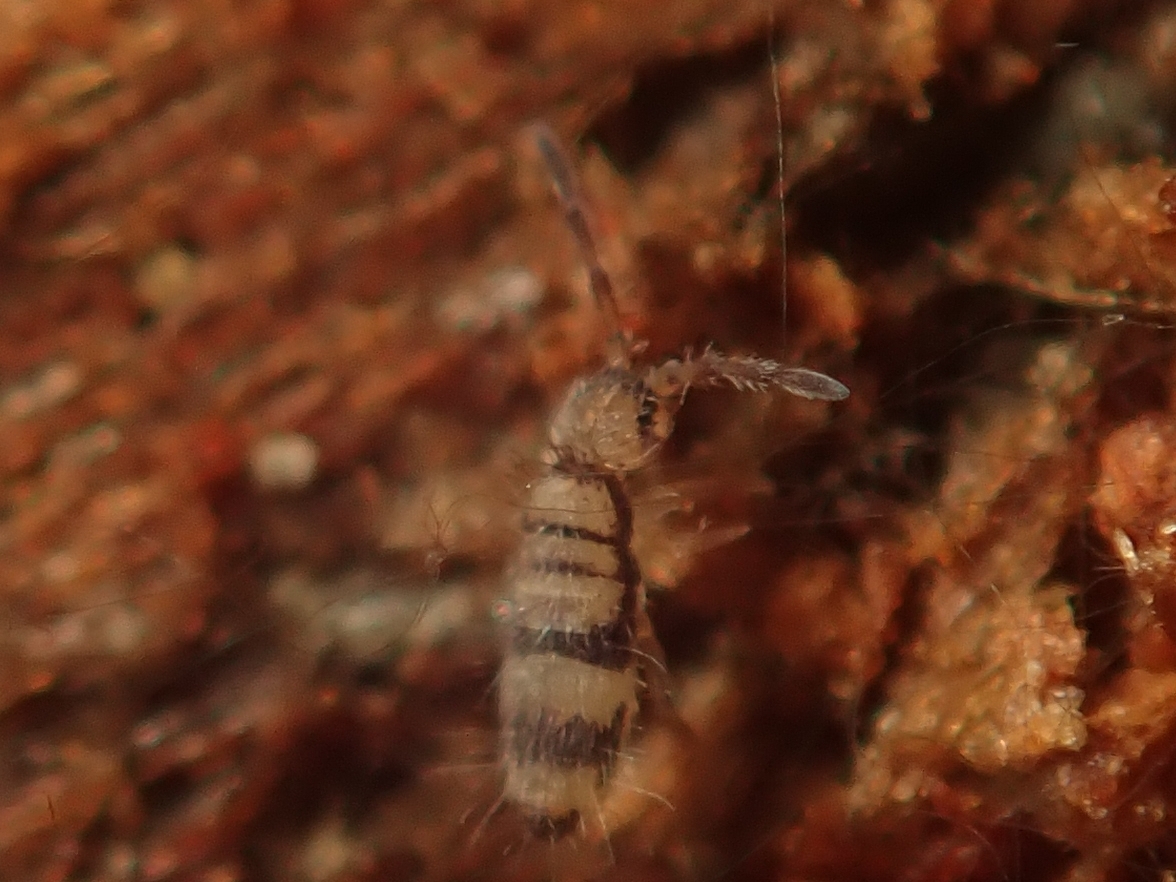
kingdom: Animalia
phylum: Arthropoda
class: Collembola
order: Entomobryomorpha
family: Entomobryidae
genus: Entomobrya
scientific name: Entomobrya corticalis
